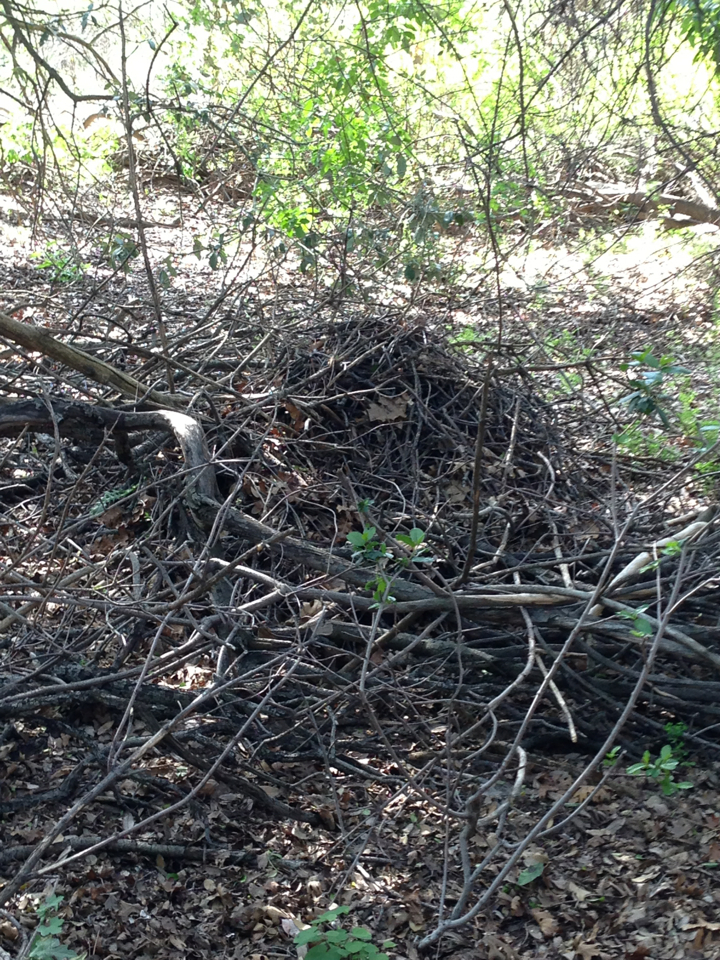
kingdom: Animalia
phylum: Chordata
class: Mammalia
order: Rodentia
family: Cricetidae
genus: Neotoma
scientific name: Neotoma macrotis
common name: Big-eared woodrat
